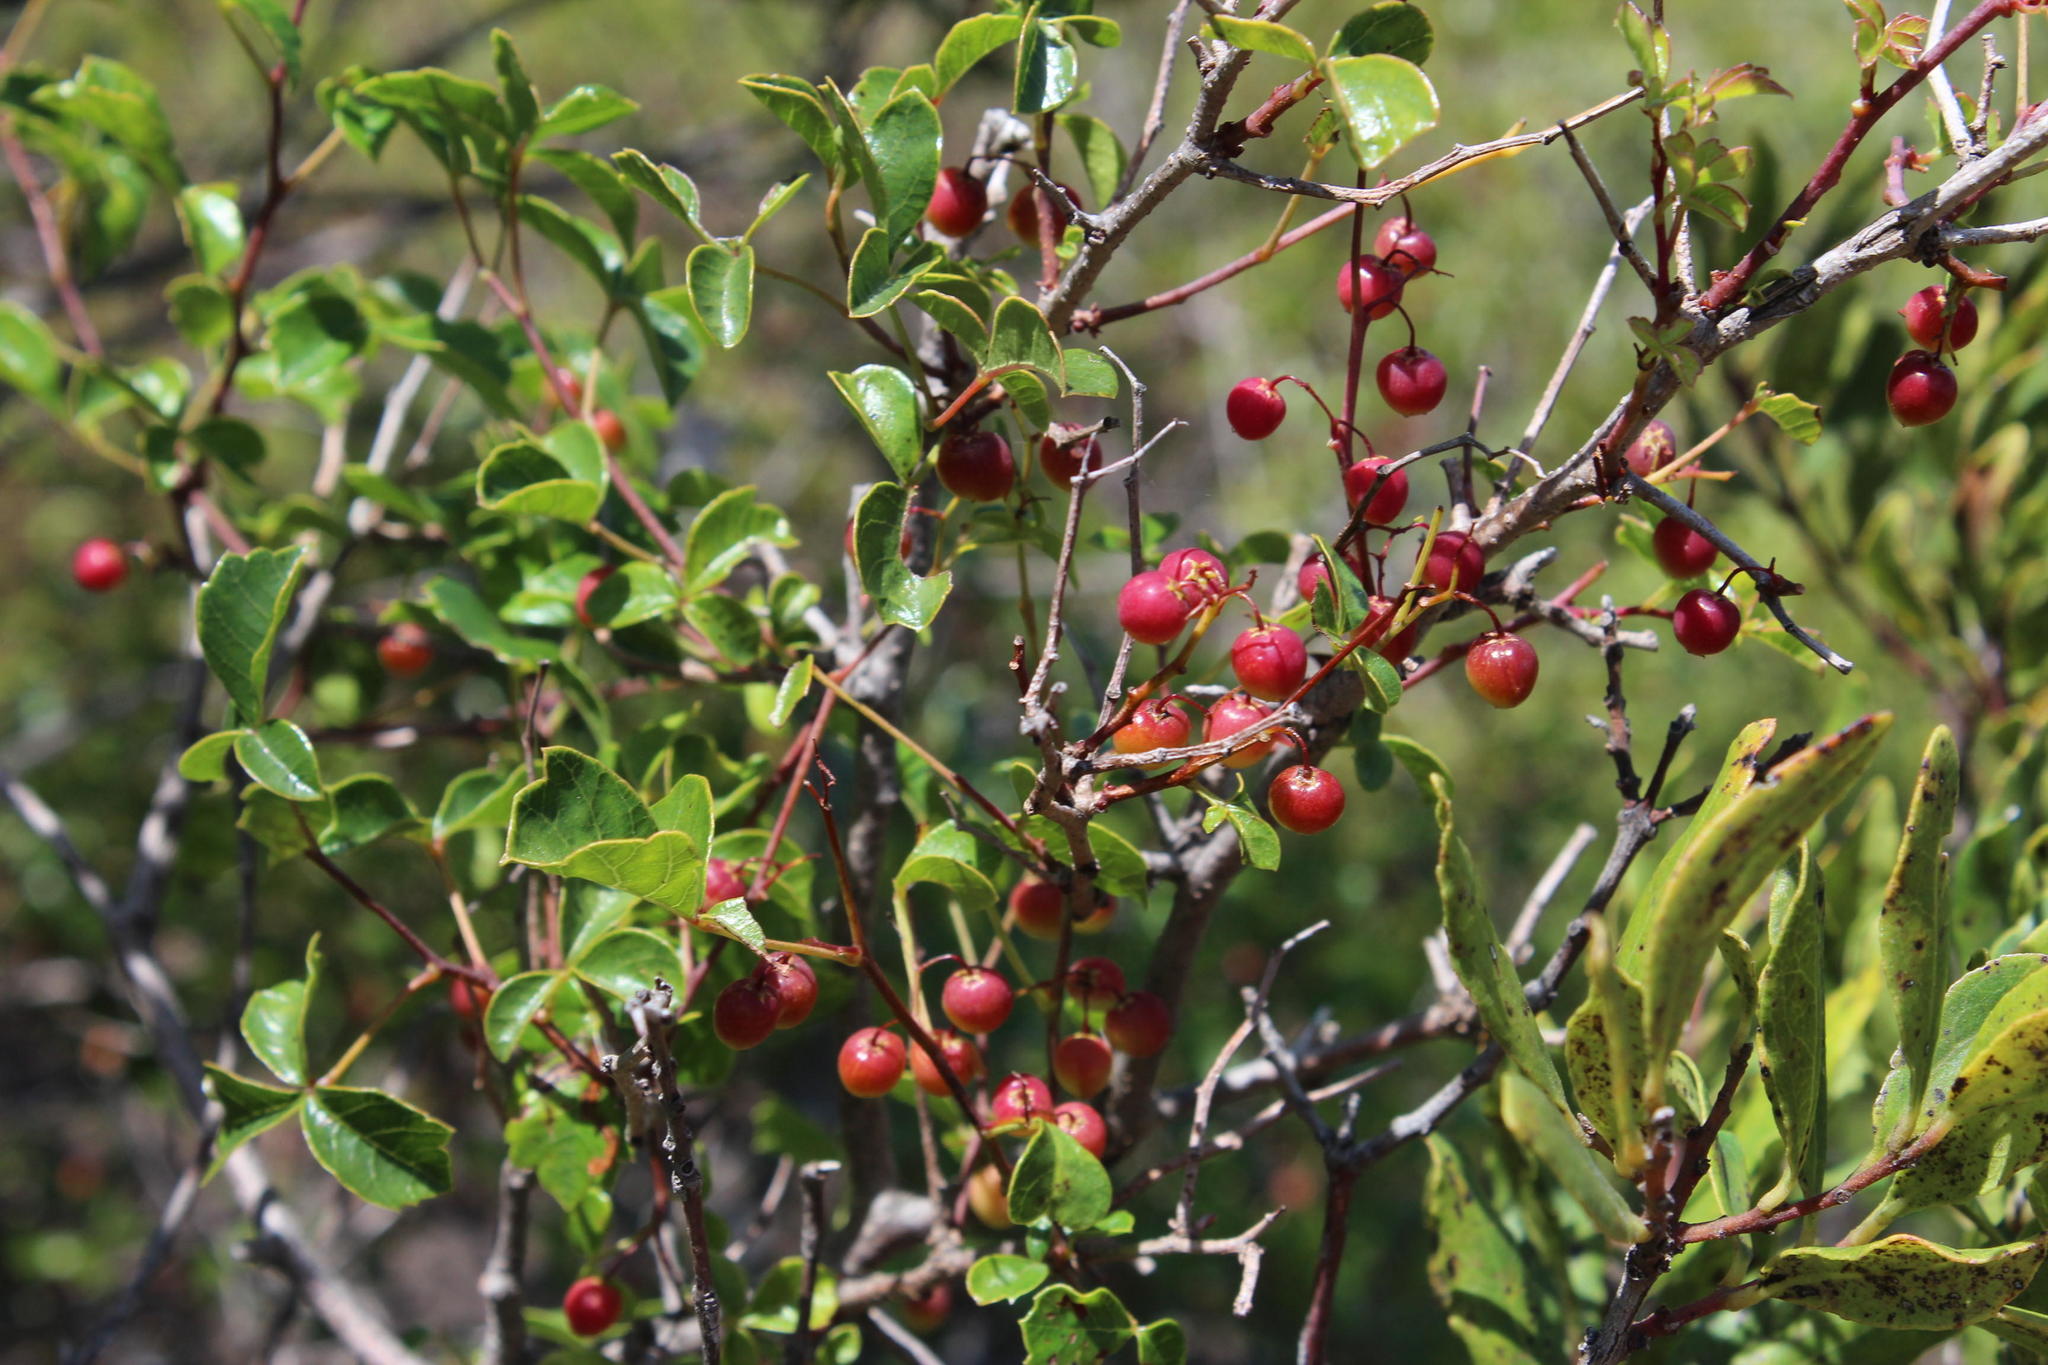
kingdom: Plantae
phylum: Tracheophyta
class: Magnoliopsida
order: Sapindales
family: Anacardiaceae
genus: Searsia
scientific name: Searsia dentata
